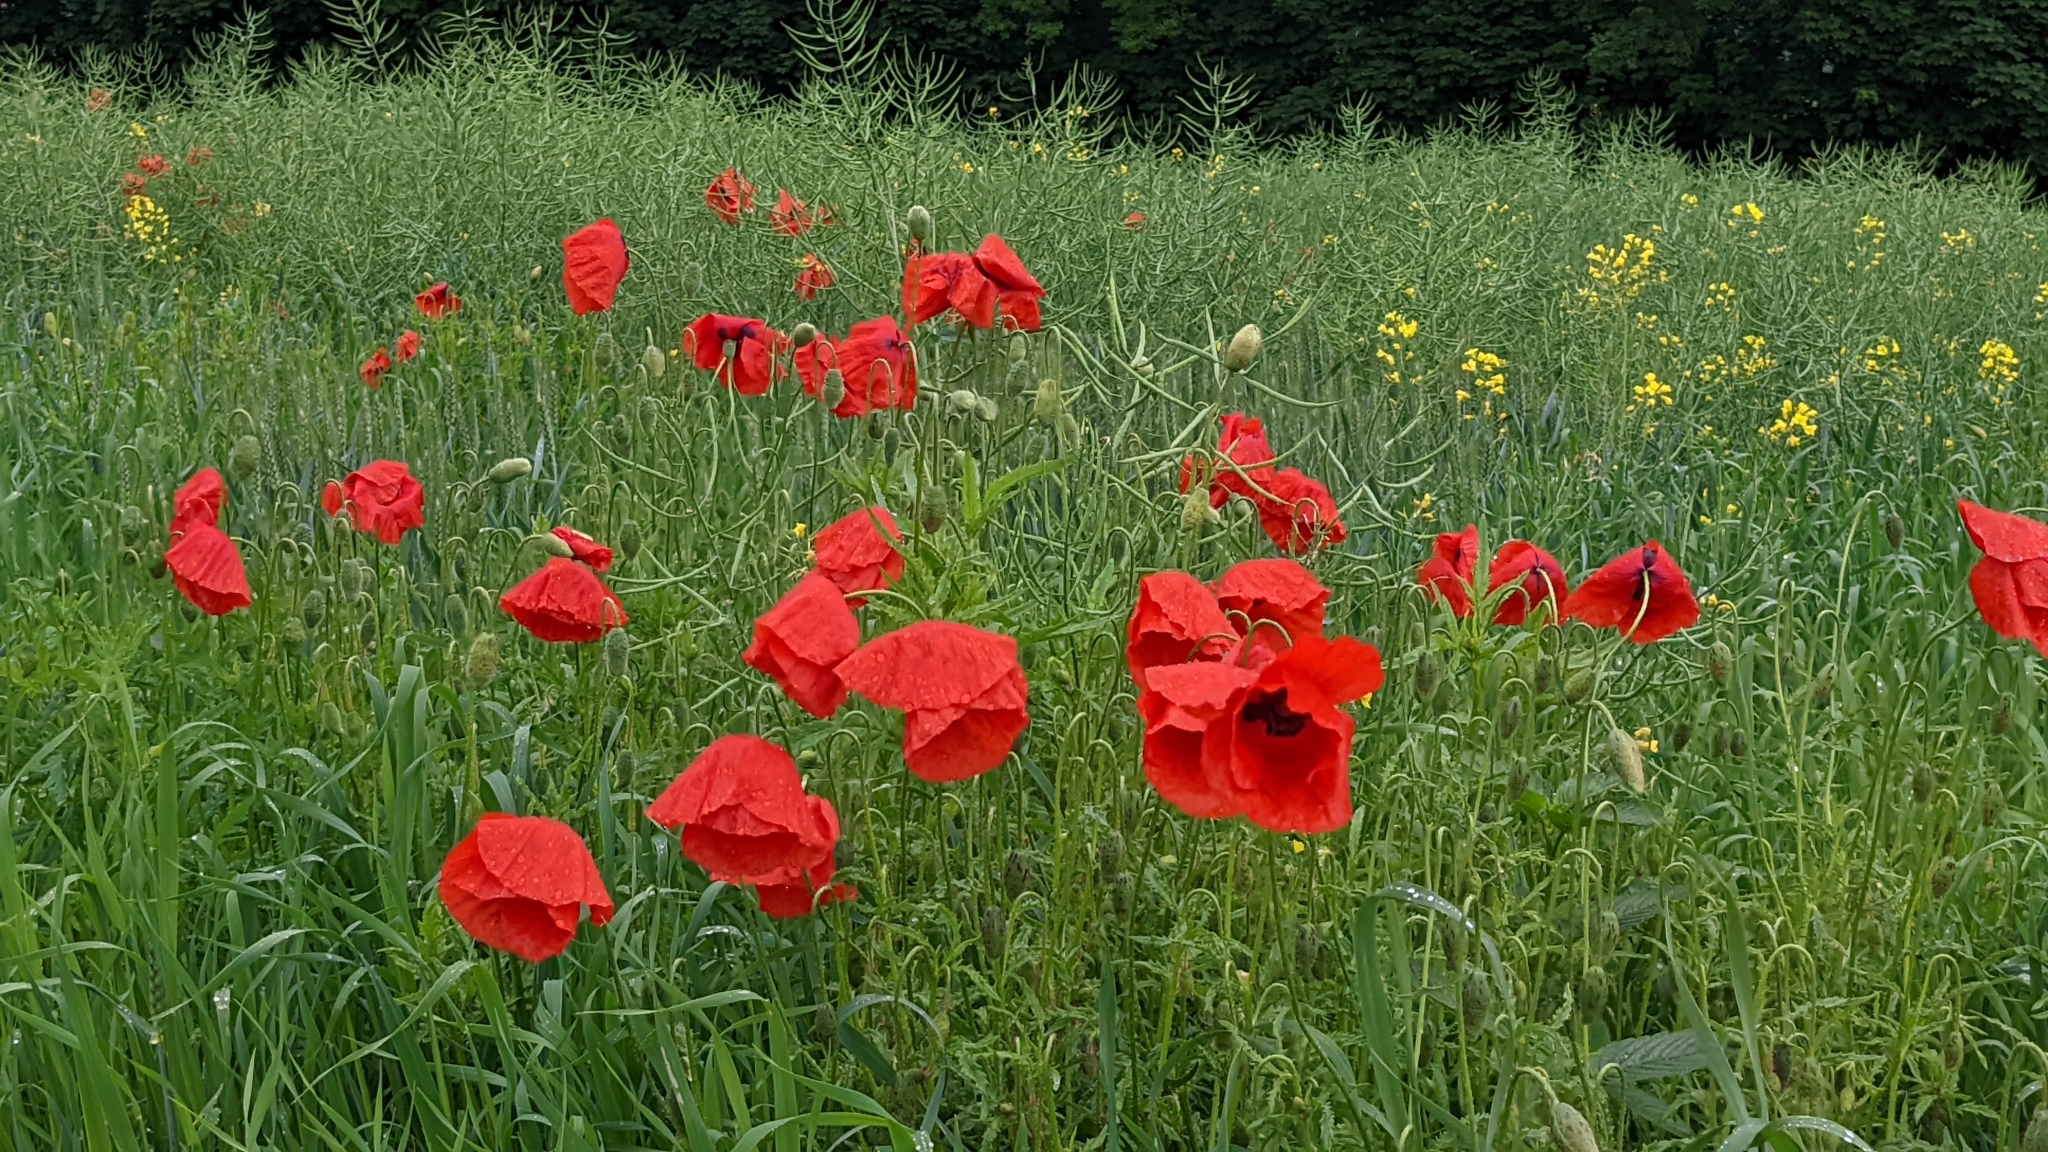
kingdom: Plantae
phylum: Tracheophyta
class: Magnoliopsida
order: Ranunculales
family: Papaveraceae
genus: Papaver
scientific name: Papaver rhoeas
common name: Corn poppy
